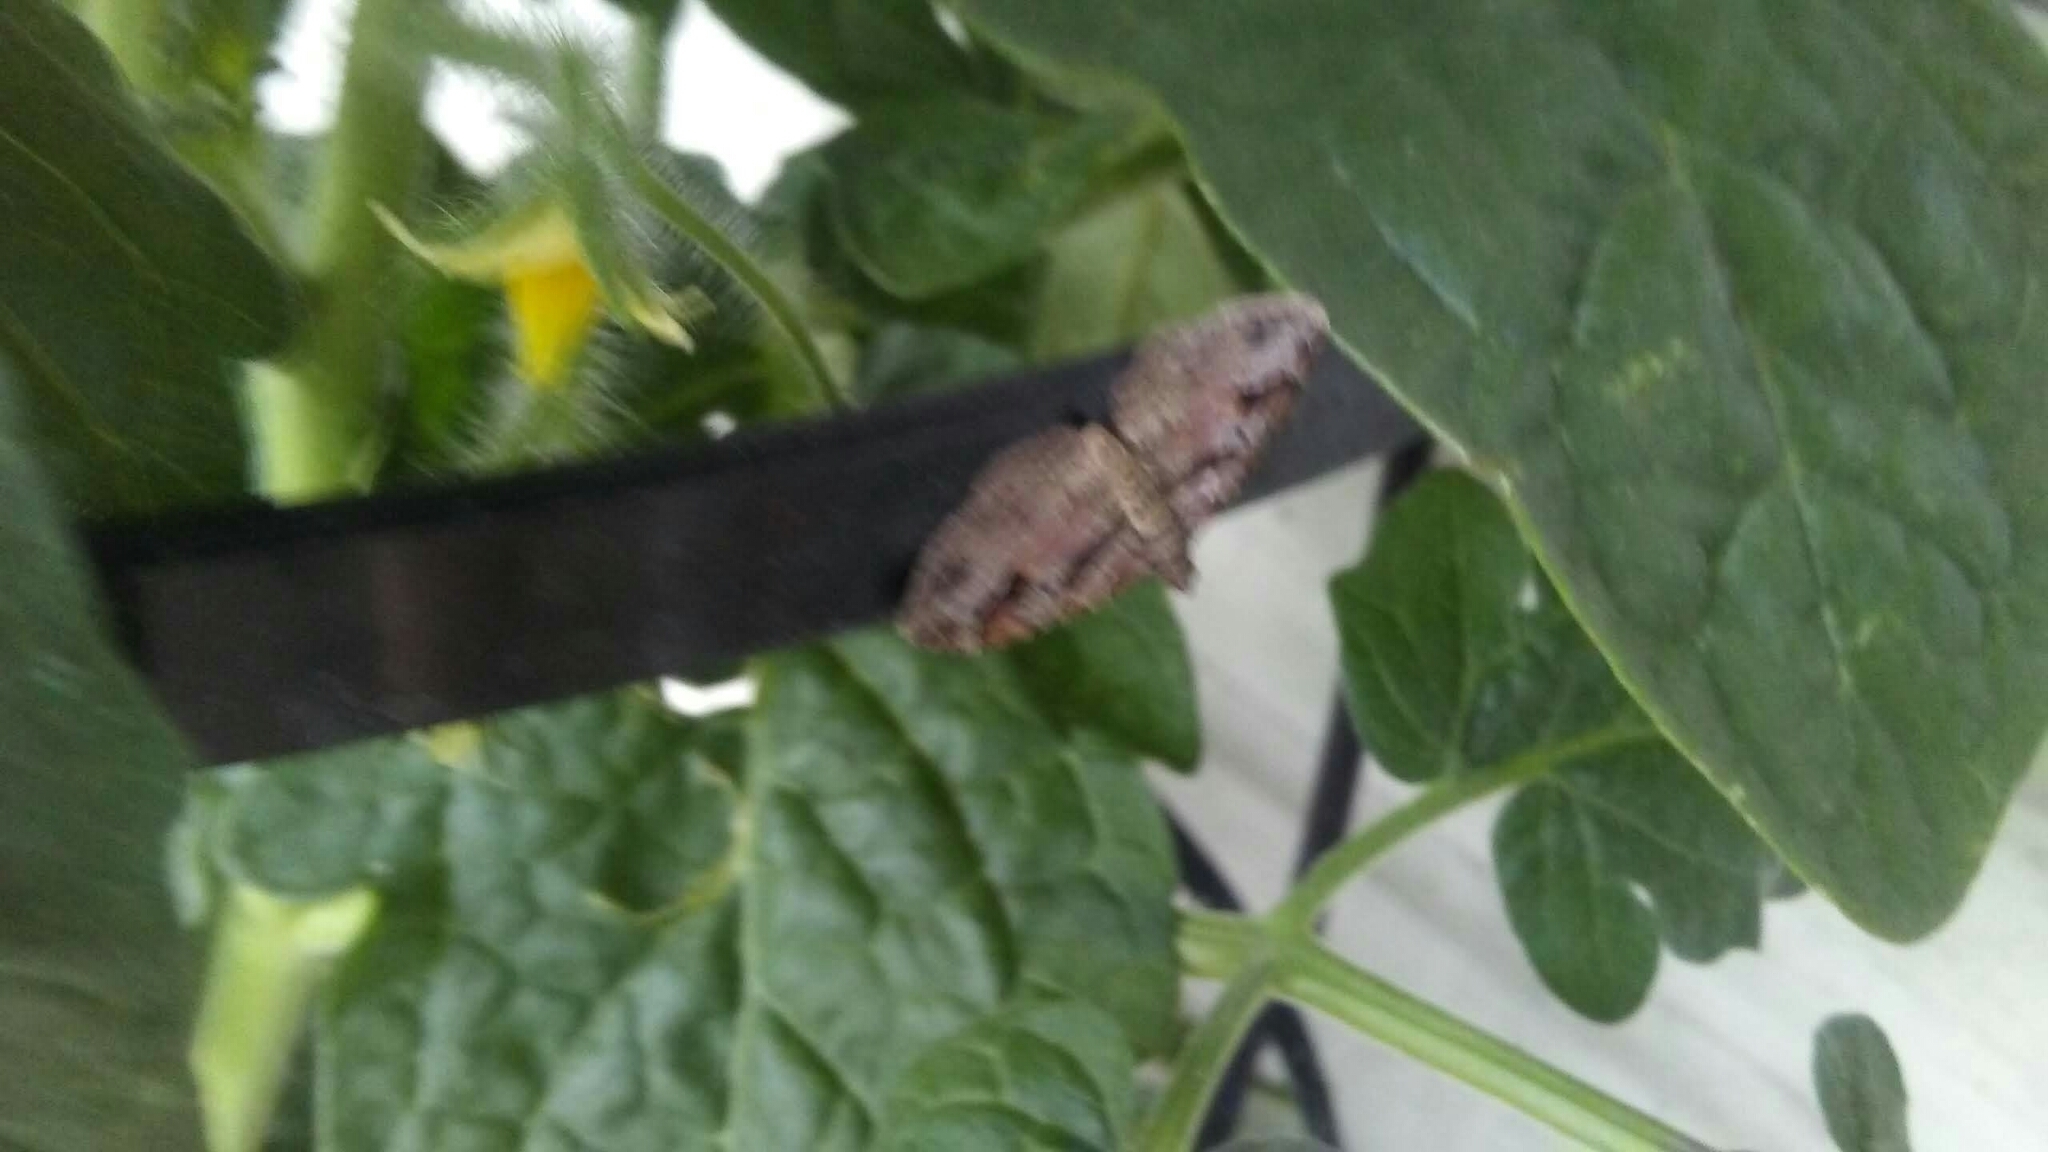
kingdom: Animalia
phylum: Arthropoda
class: Insecta
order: Lepidoptera
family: Geometridae
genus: Costaconvexa
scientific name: Costaconvexa centrostrigaria
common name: Bent-line carpet
